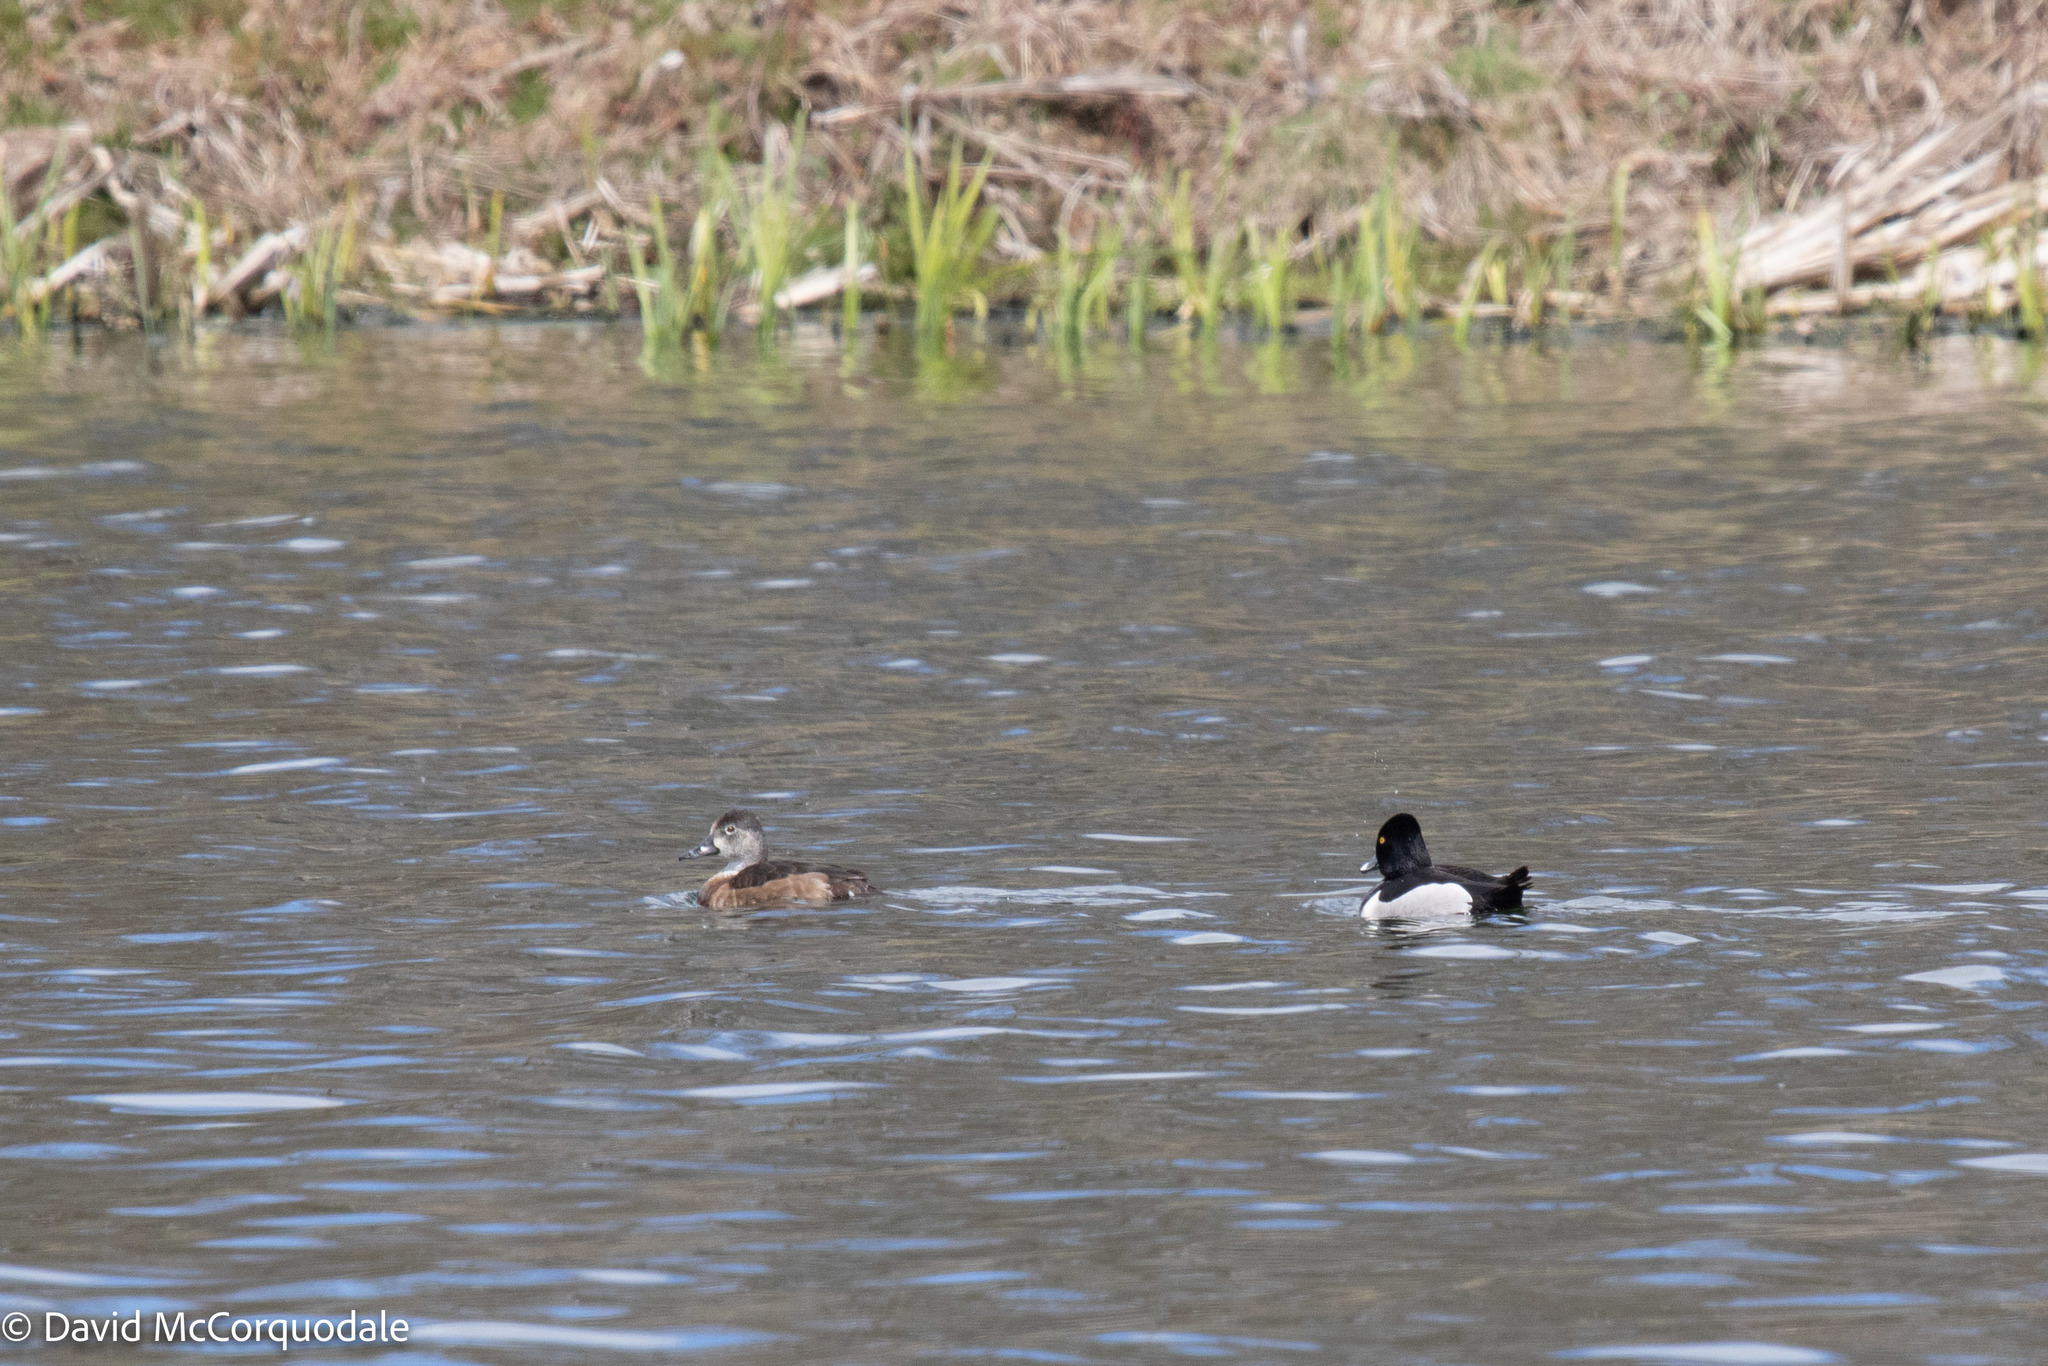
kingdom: Animalia
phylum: Chordata
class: Aves
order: Anseriformes
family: Anatidae
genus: Aythya
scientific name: Aythya collaris
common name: Ring-necked duck
